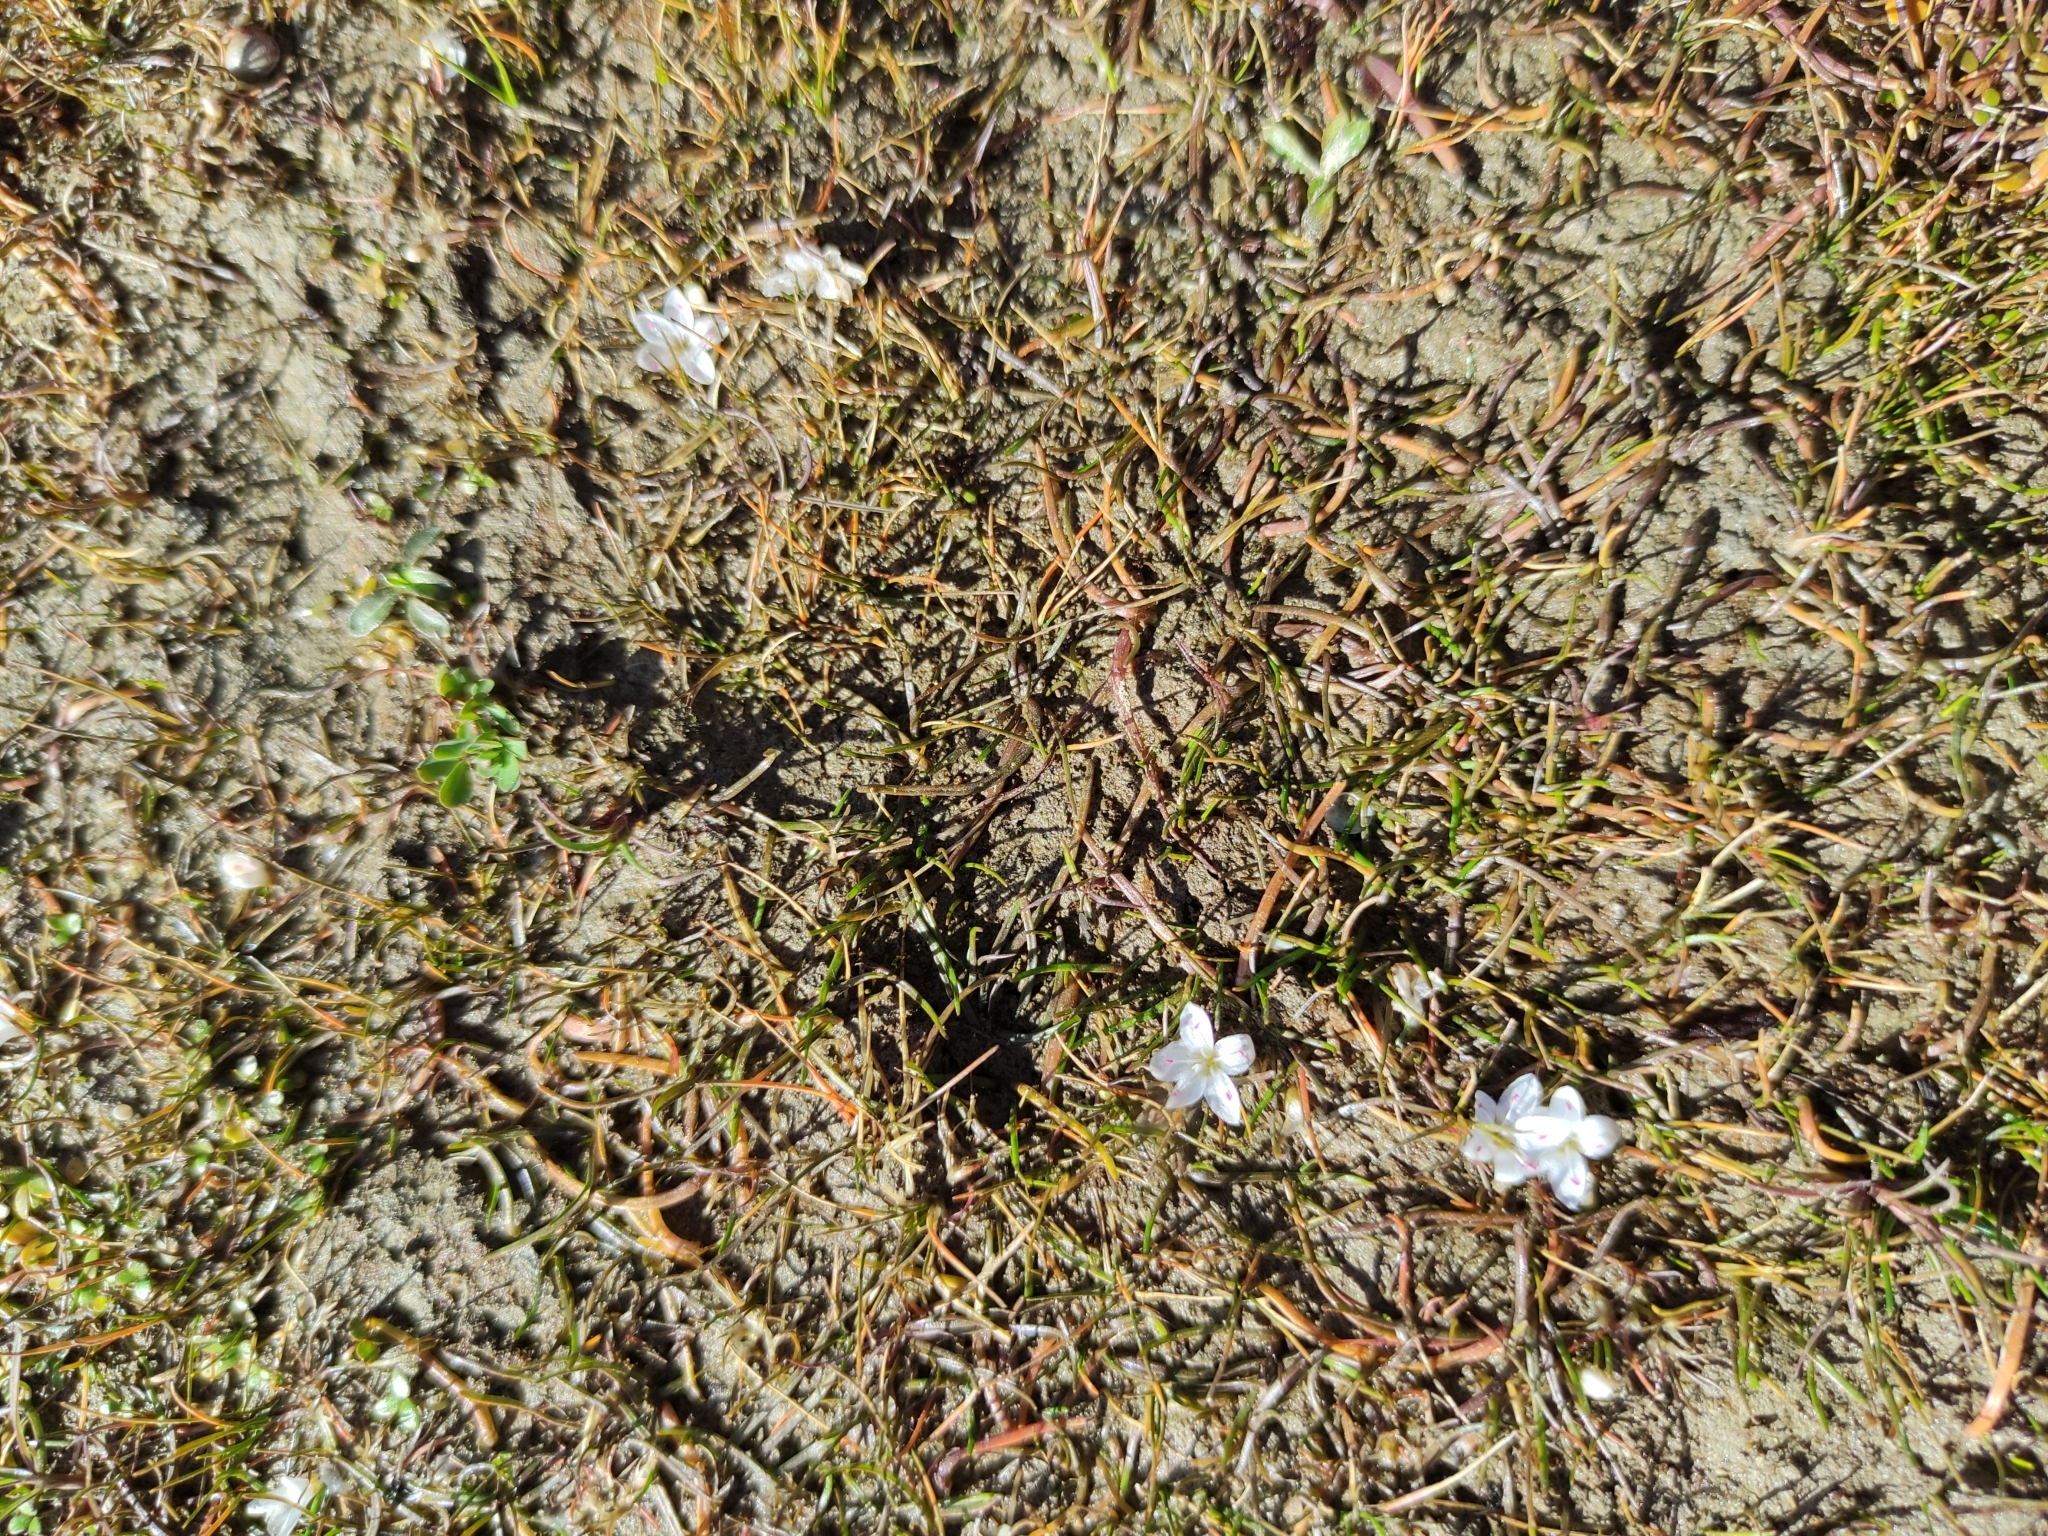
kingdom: Plantae
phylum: Tracheophyta
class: Magnoliopsida
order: Caryophyllales
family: Montiaceae
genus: Montia
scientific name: Montia angustifolia
